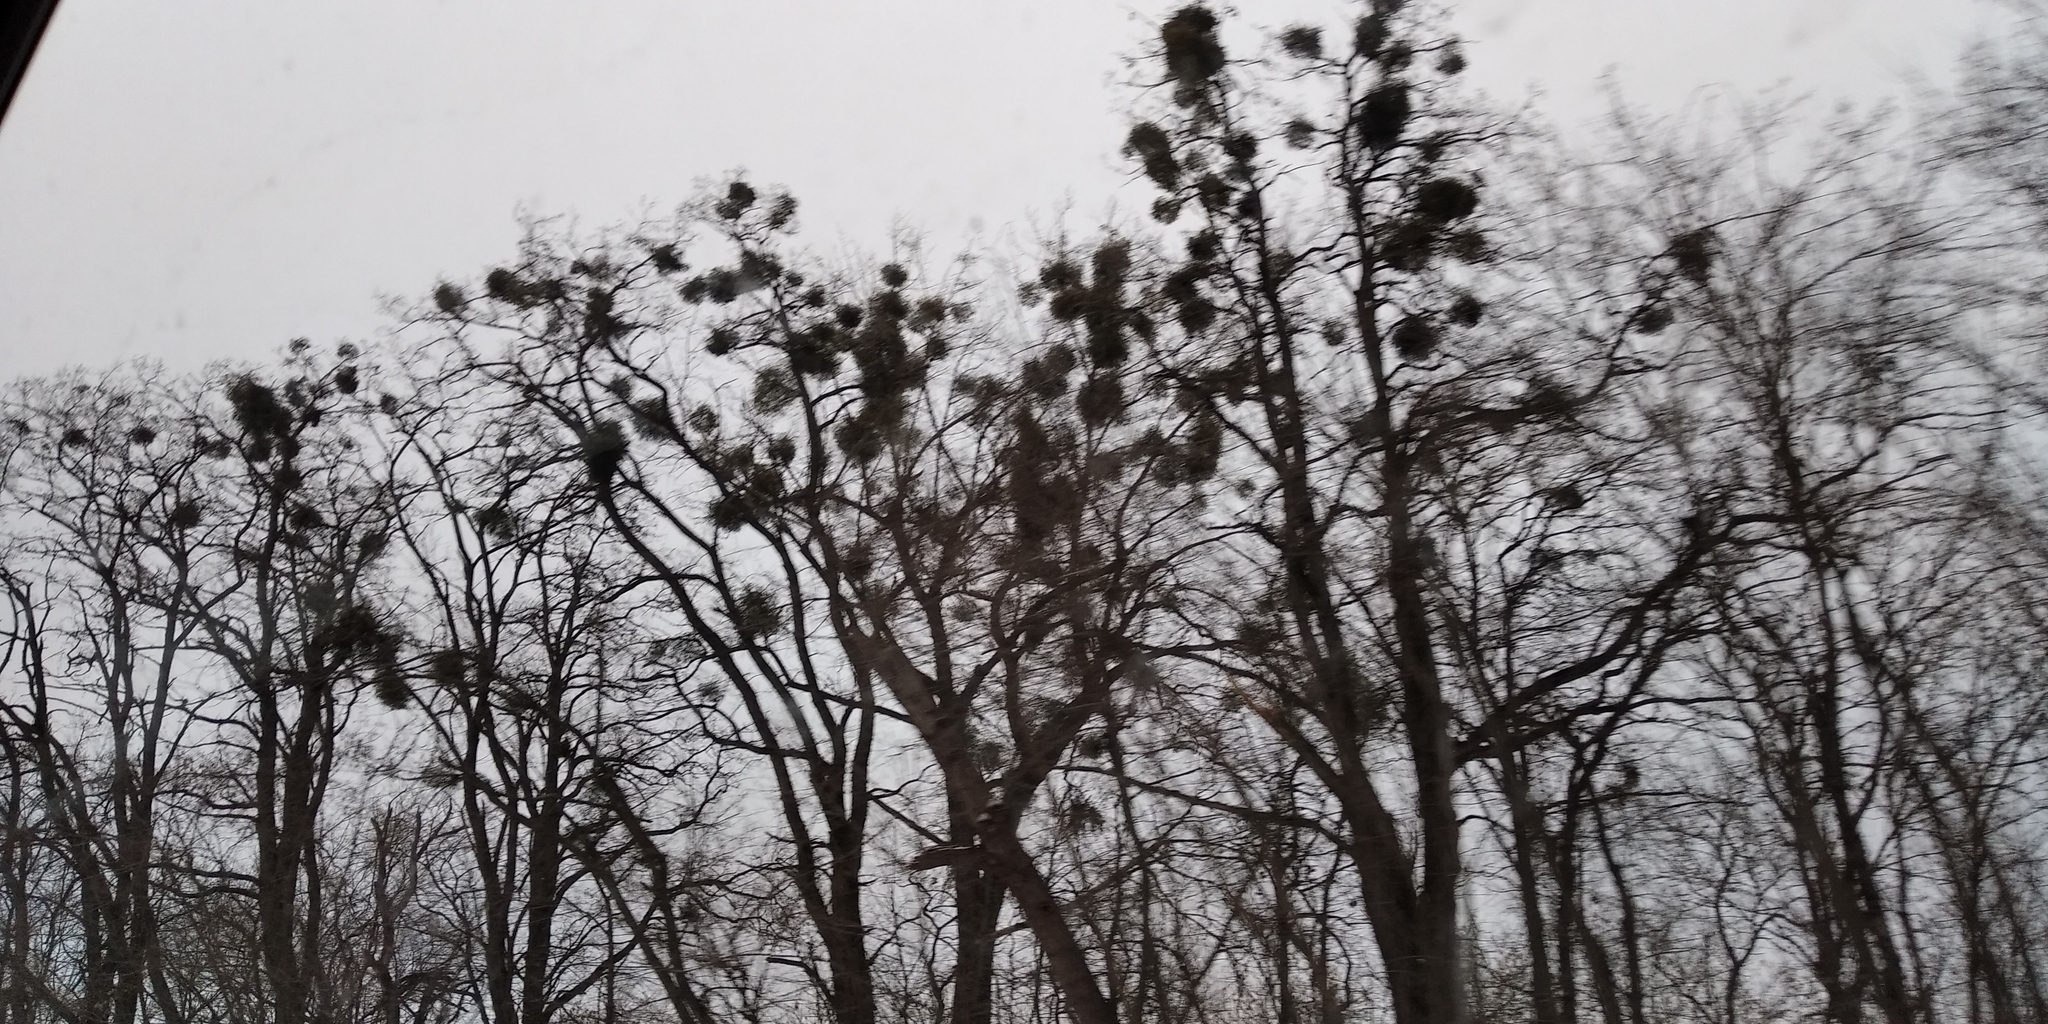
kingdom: Plantae
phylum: Tracheophyta
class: Magnoliopsida
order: Santalales
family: Viscaceae
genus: Viscum
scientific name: Viscum album
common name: Mistletoe
